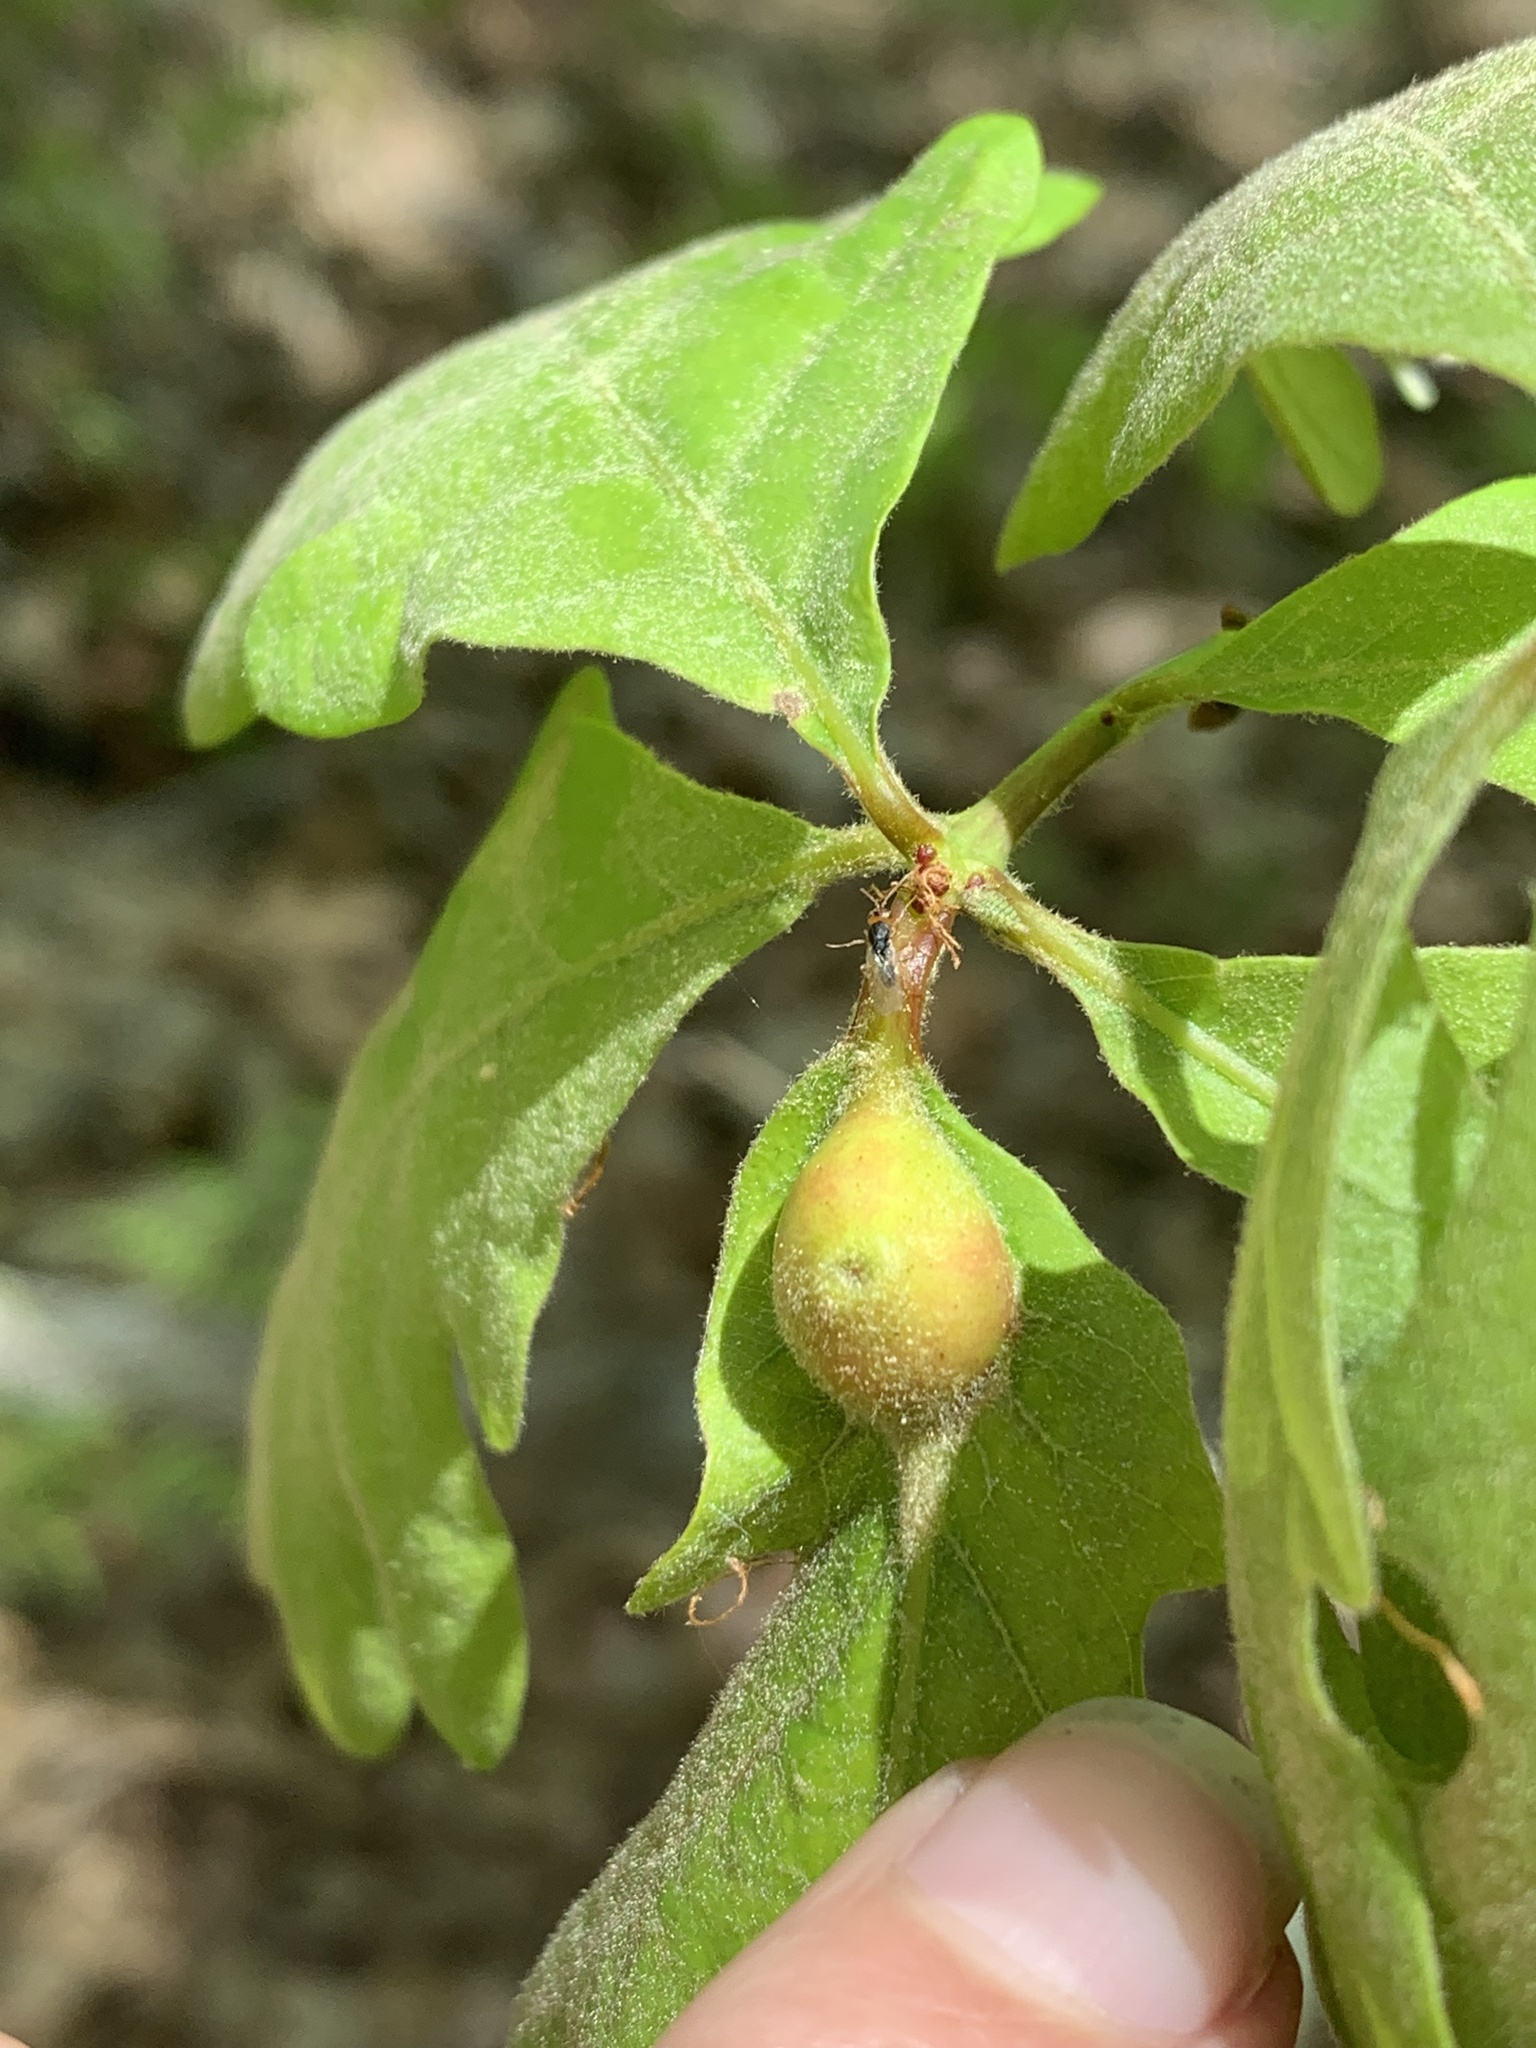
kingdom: Animalia
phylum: Arthropoda
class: Insecta
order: Hymenoptera
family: Cynipidae
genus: Andricus
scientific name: Andricus
